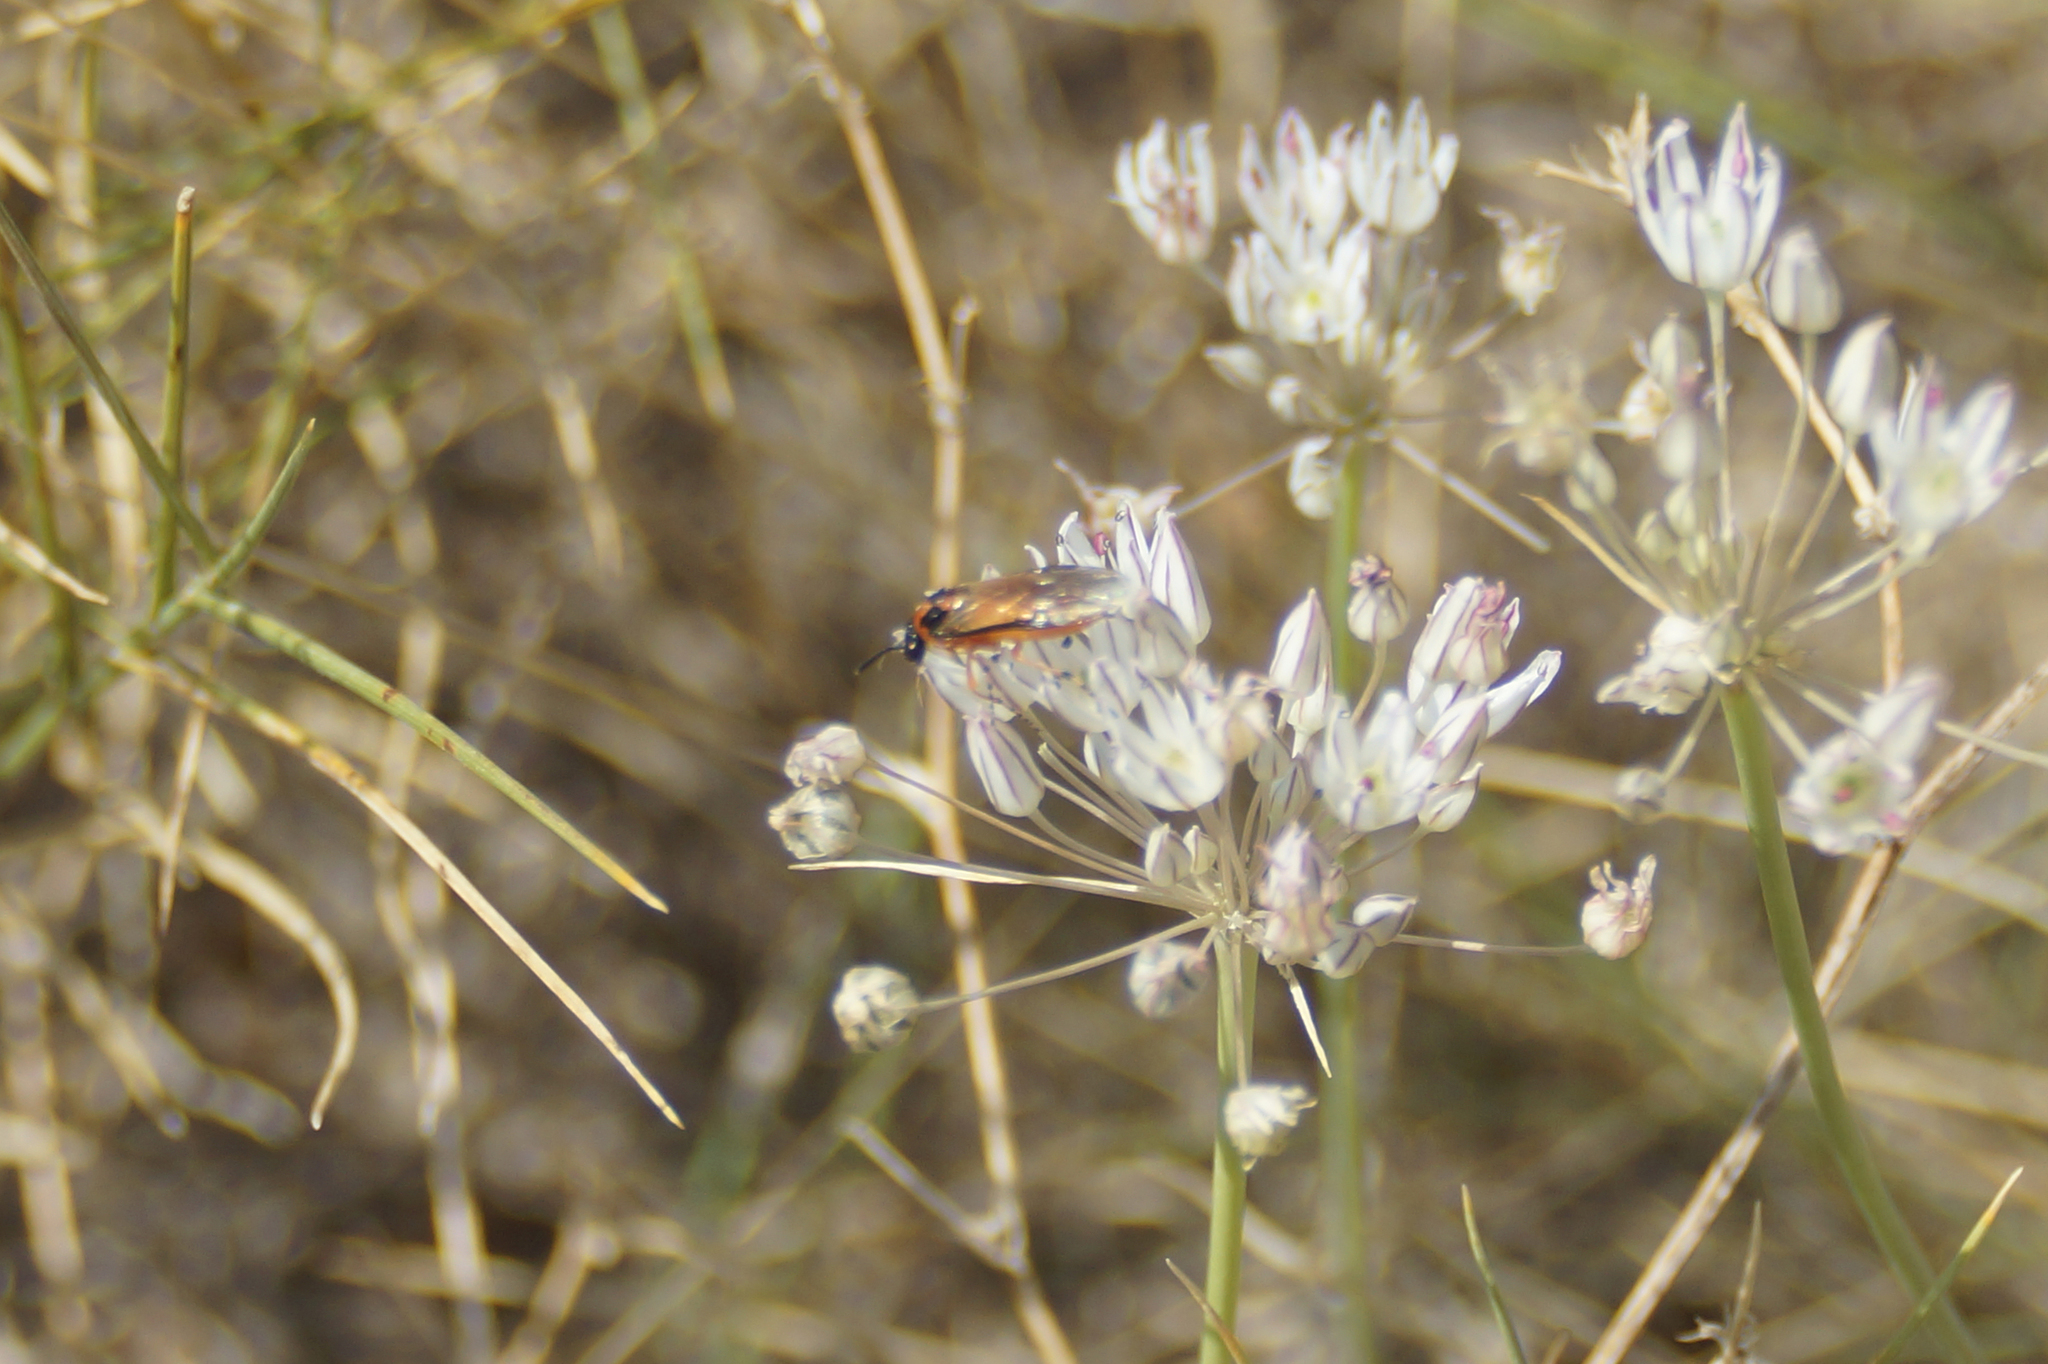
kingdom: Animalia
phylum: Arthropoda
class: Insecta
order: Hymenoptera
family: Tenthredinidae
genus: Athalia
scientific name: Athalia rosae
